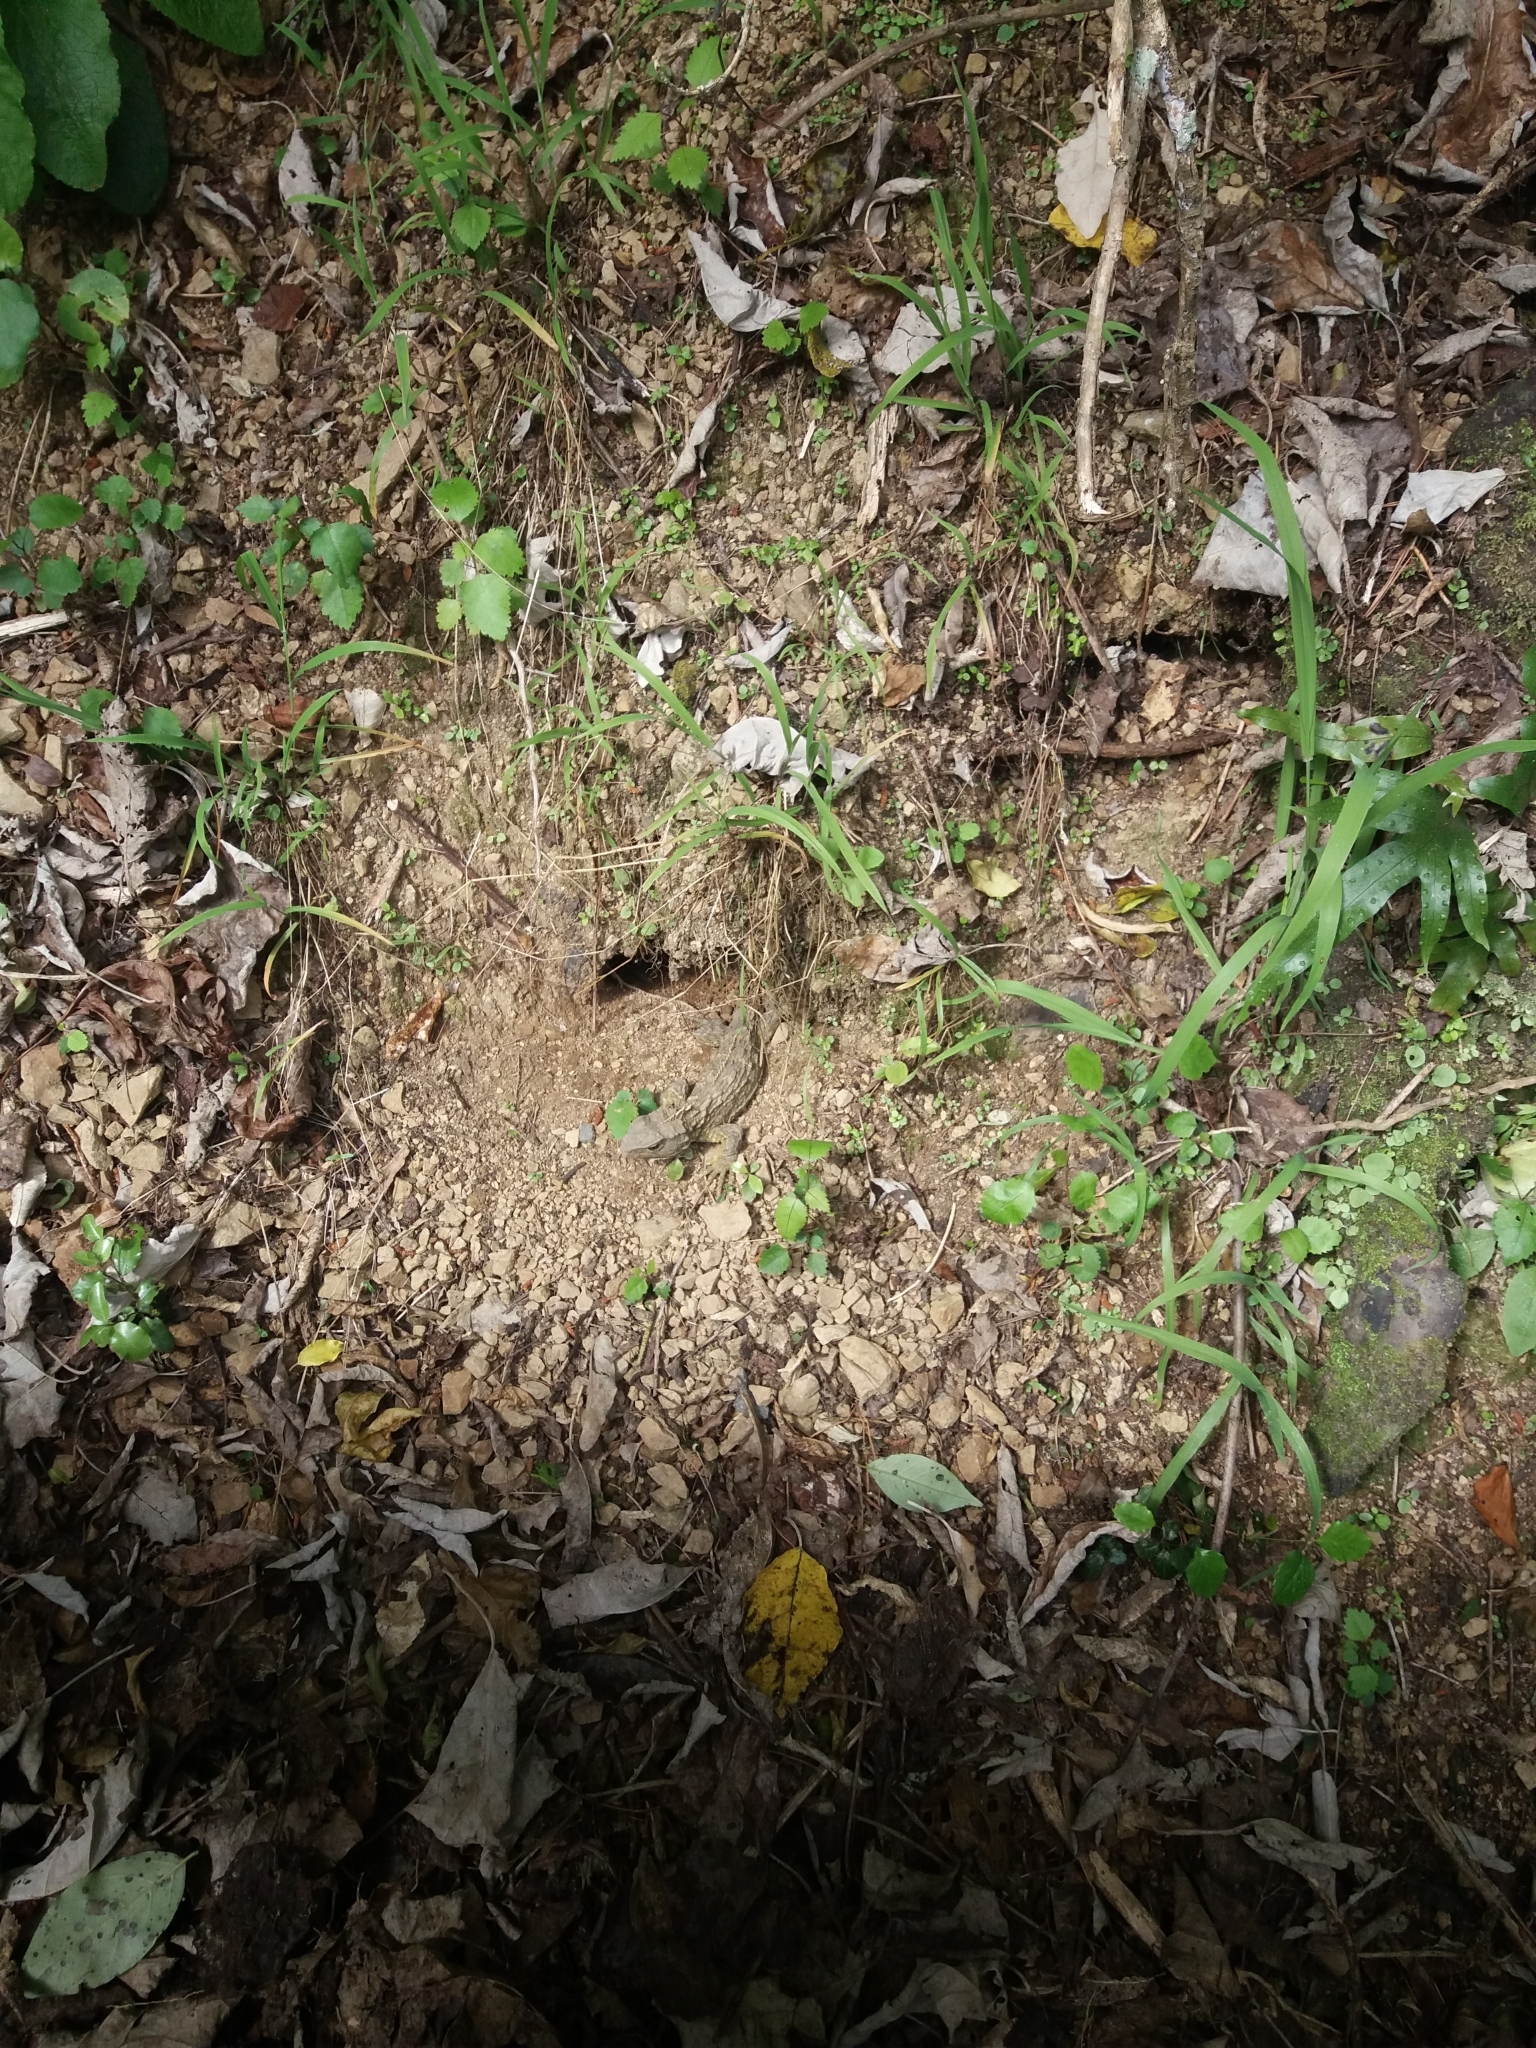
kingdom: Animalia
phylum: Chordata
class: Sphenodontia
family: Sphenodontidae
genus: Sphenodon
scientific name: Sphenodon punctatus
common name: Tuatara
